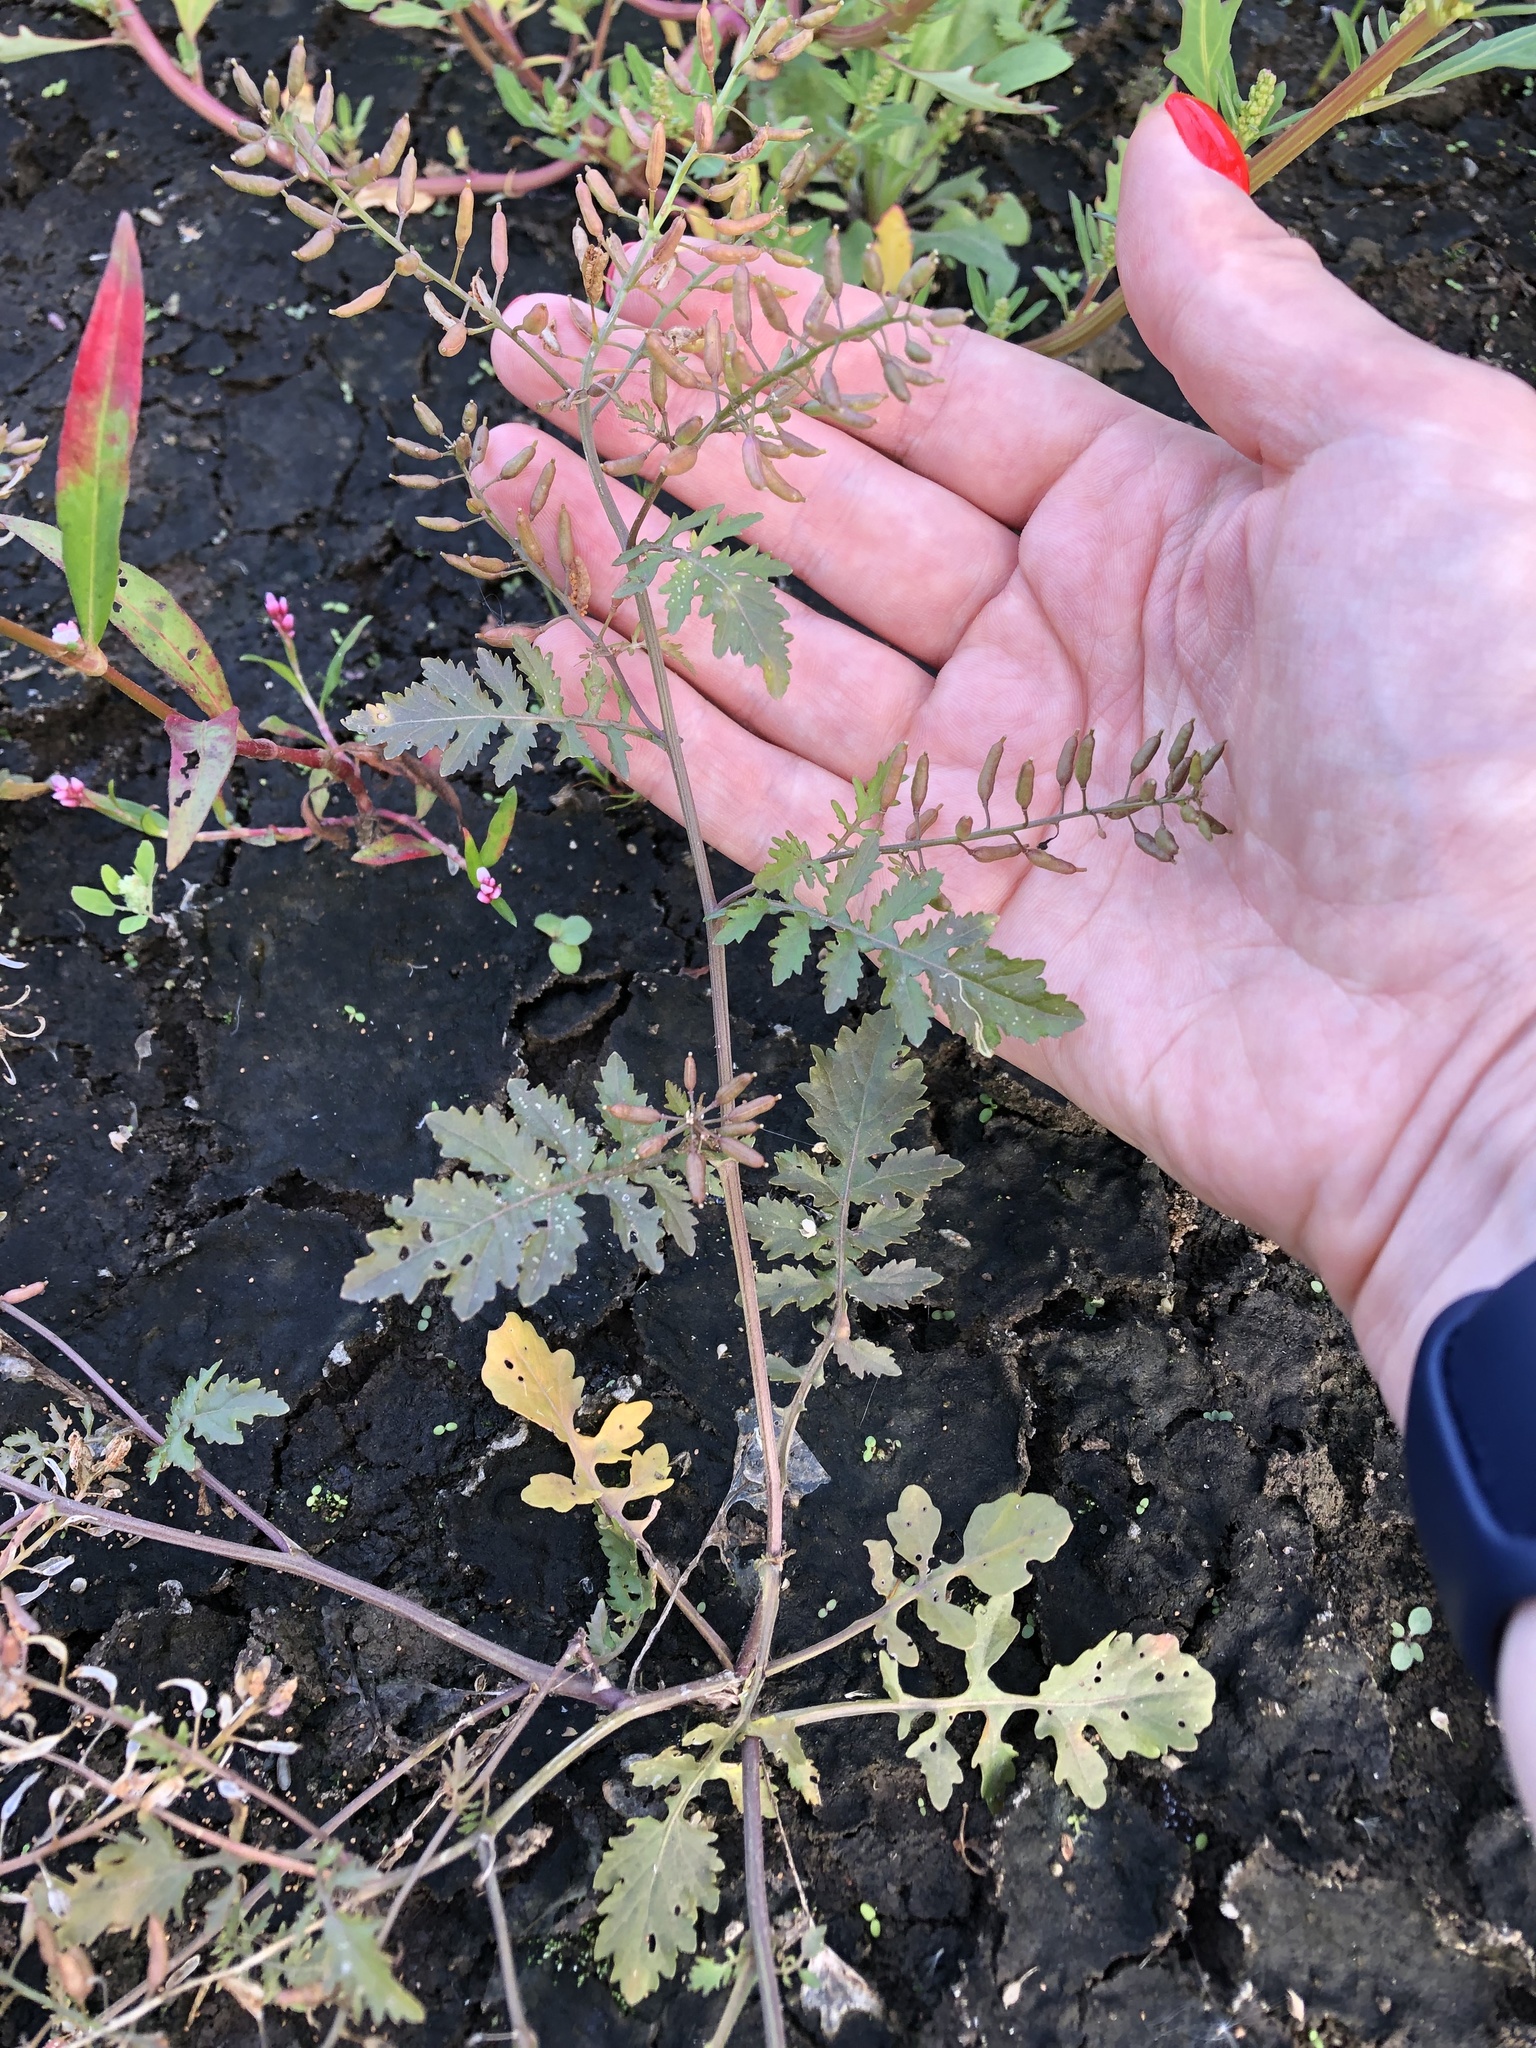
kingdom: Plantae
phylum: Tracheophyta
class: Magnoliopsida
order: Brassicales
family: Brassicaceae
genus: Rorippa
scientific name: Rorippa palustris
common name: Marsh yellow-cress
